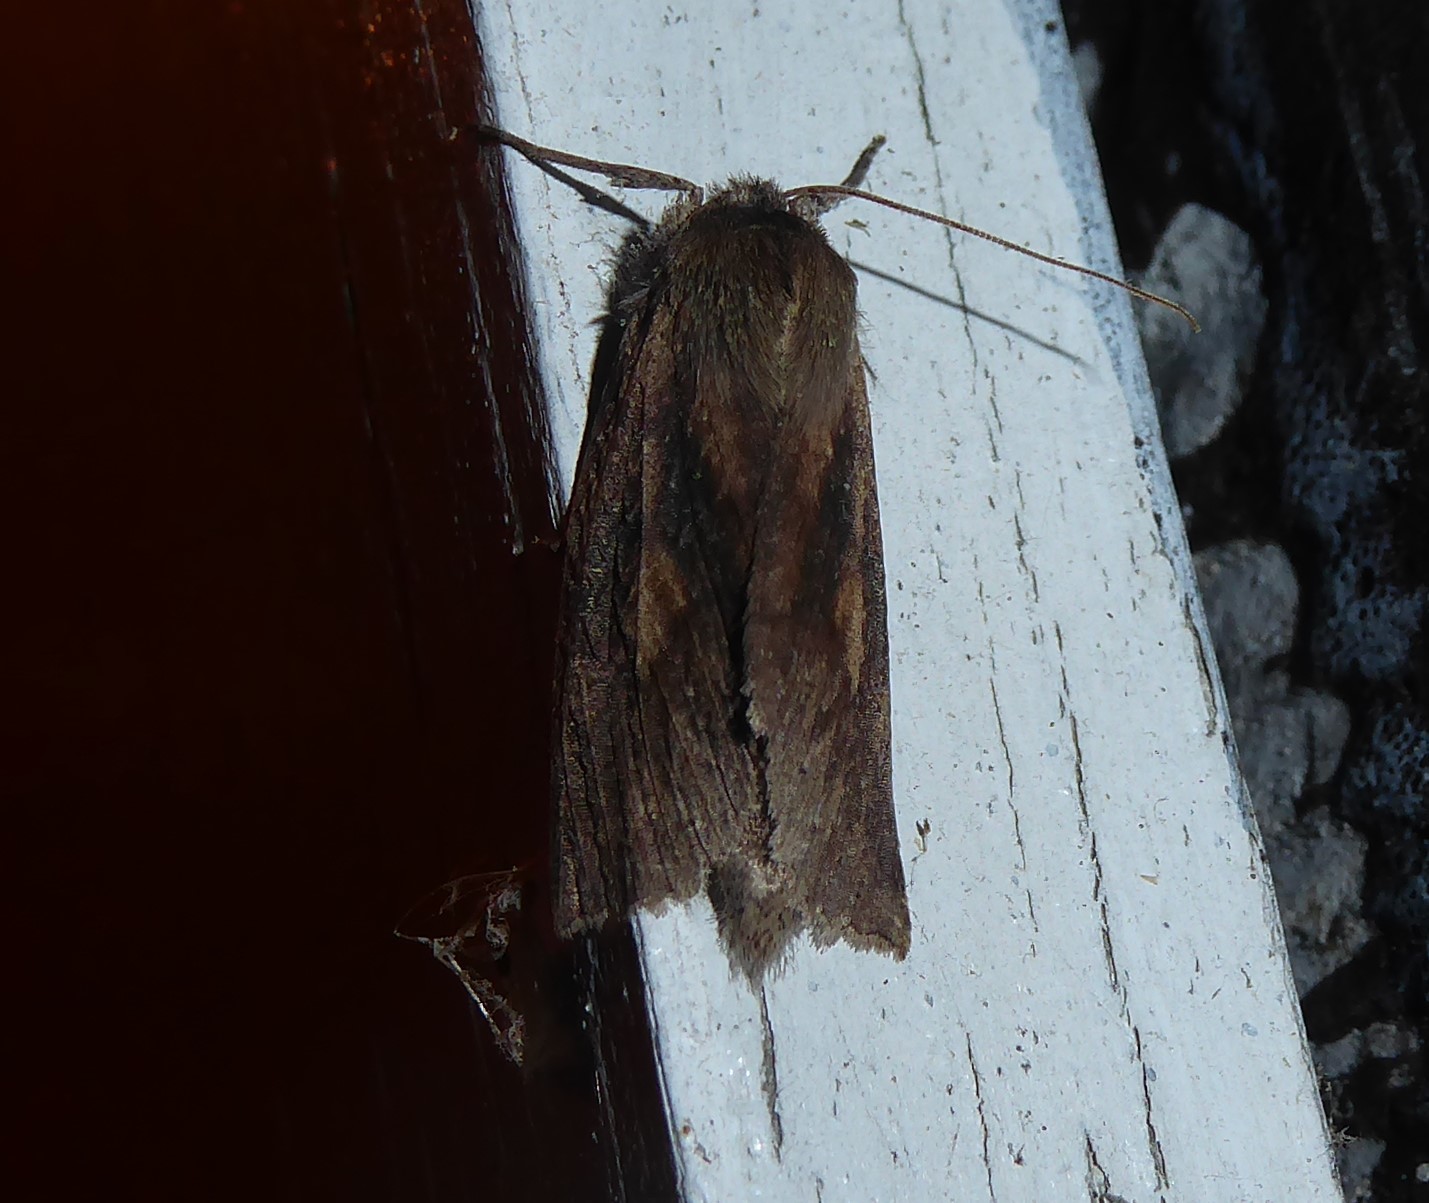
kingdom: Animalia
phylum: Arthropoda
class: Insecta
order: Lepidoptera
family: Geometridae
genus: Declana
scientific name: Declana leptomera
